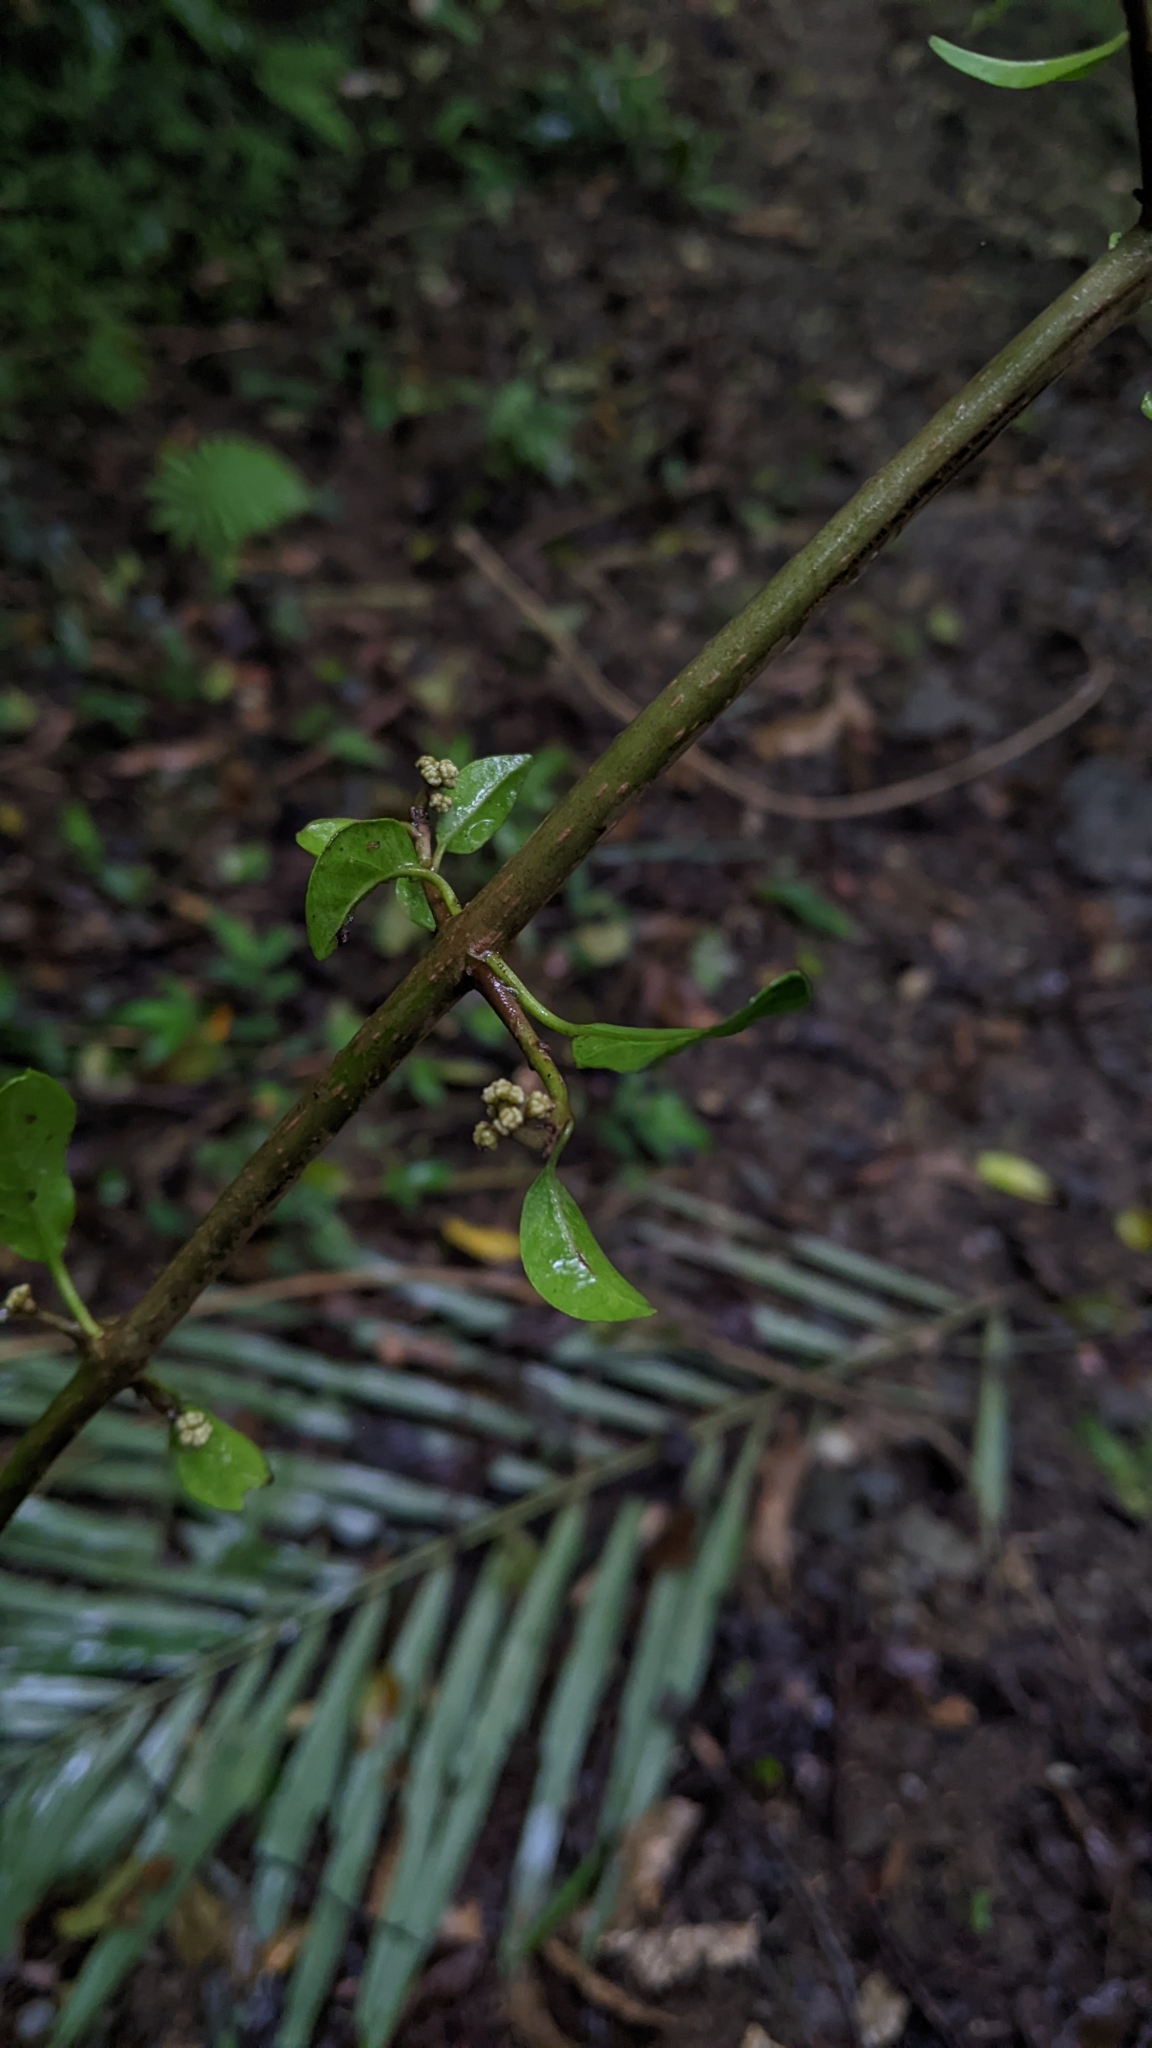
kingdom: Plantae
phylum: Tracheophyta
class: Magnoliopsida
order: Caryophyllales
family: Nyctaginaceae
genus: Pisonia
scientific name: Pisonia aculeata
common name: Cockspur vine
